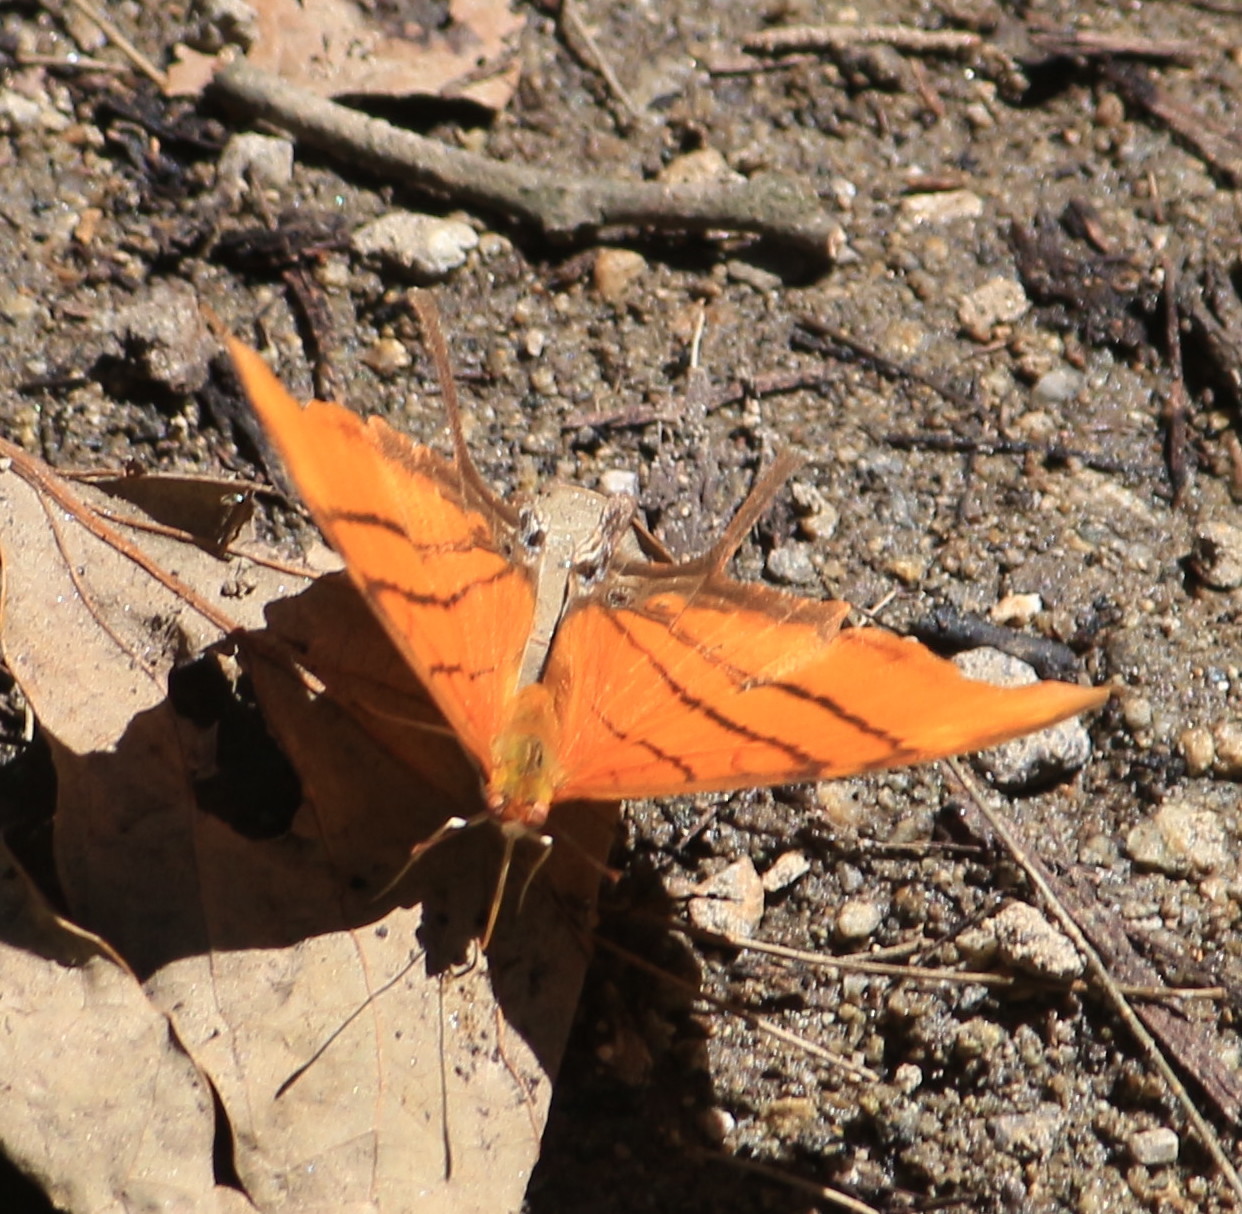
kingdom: Animalia
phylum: Arthropoda
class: Insecta
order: Lepidoptera
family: Nymphalidae
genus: Marpesia
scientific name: Marpesia petreus
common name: Red dagger wing
